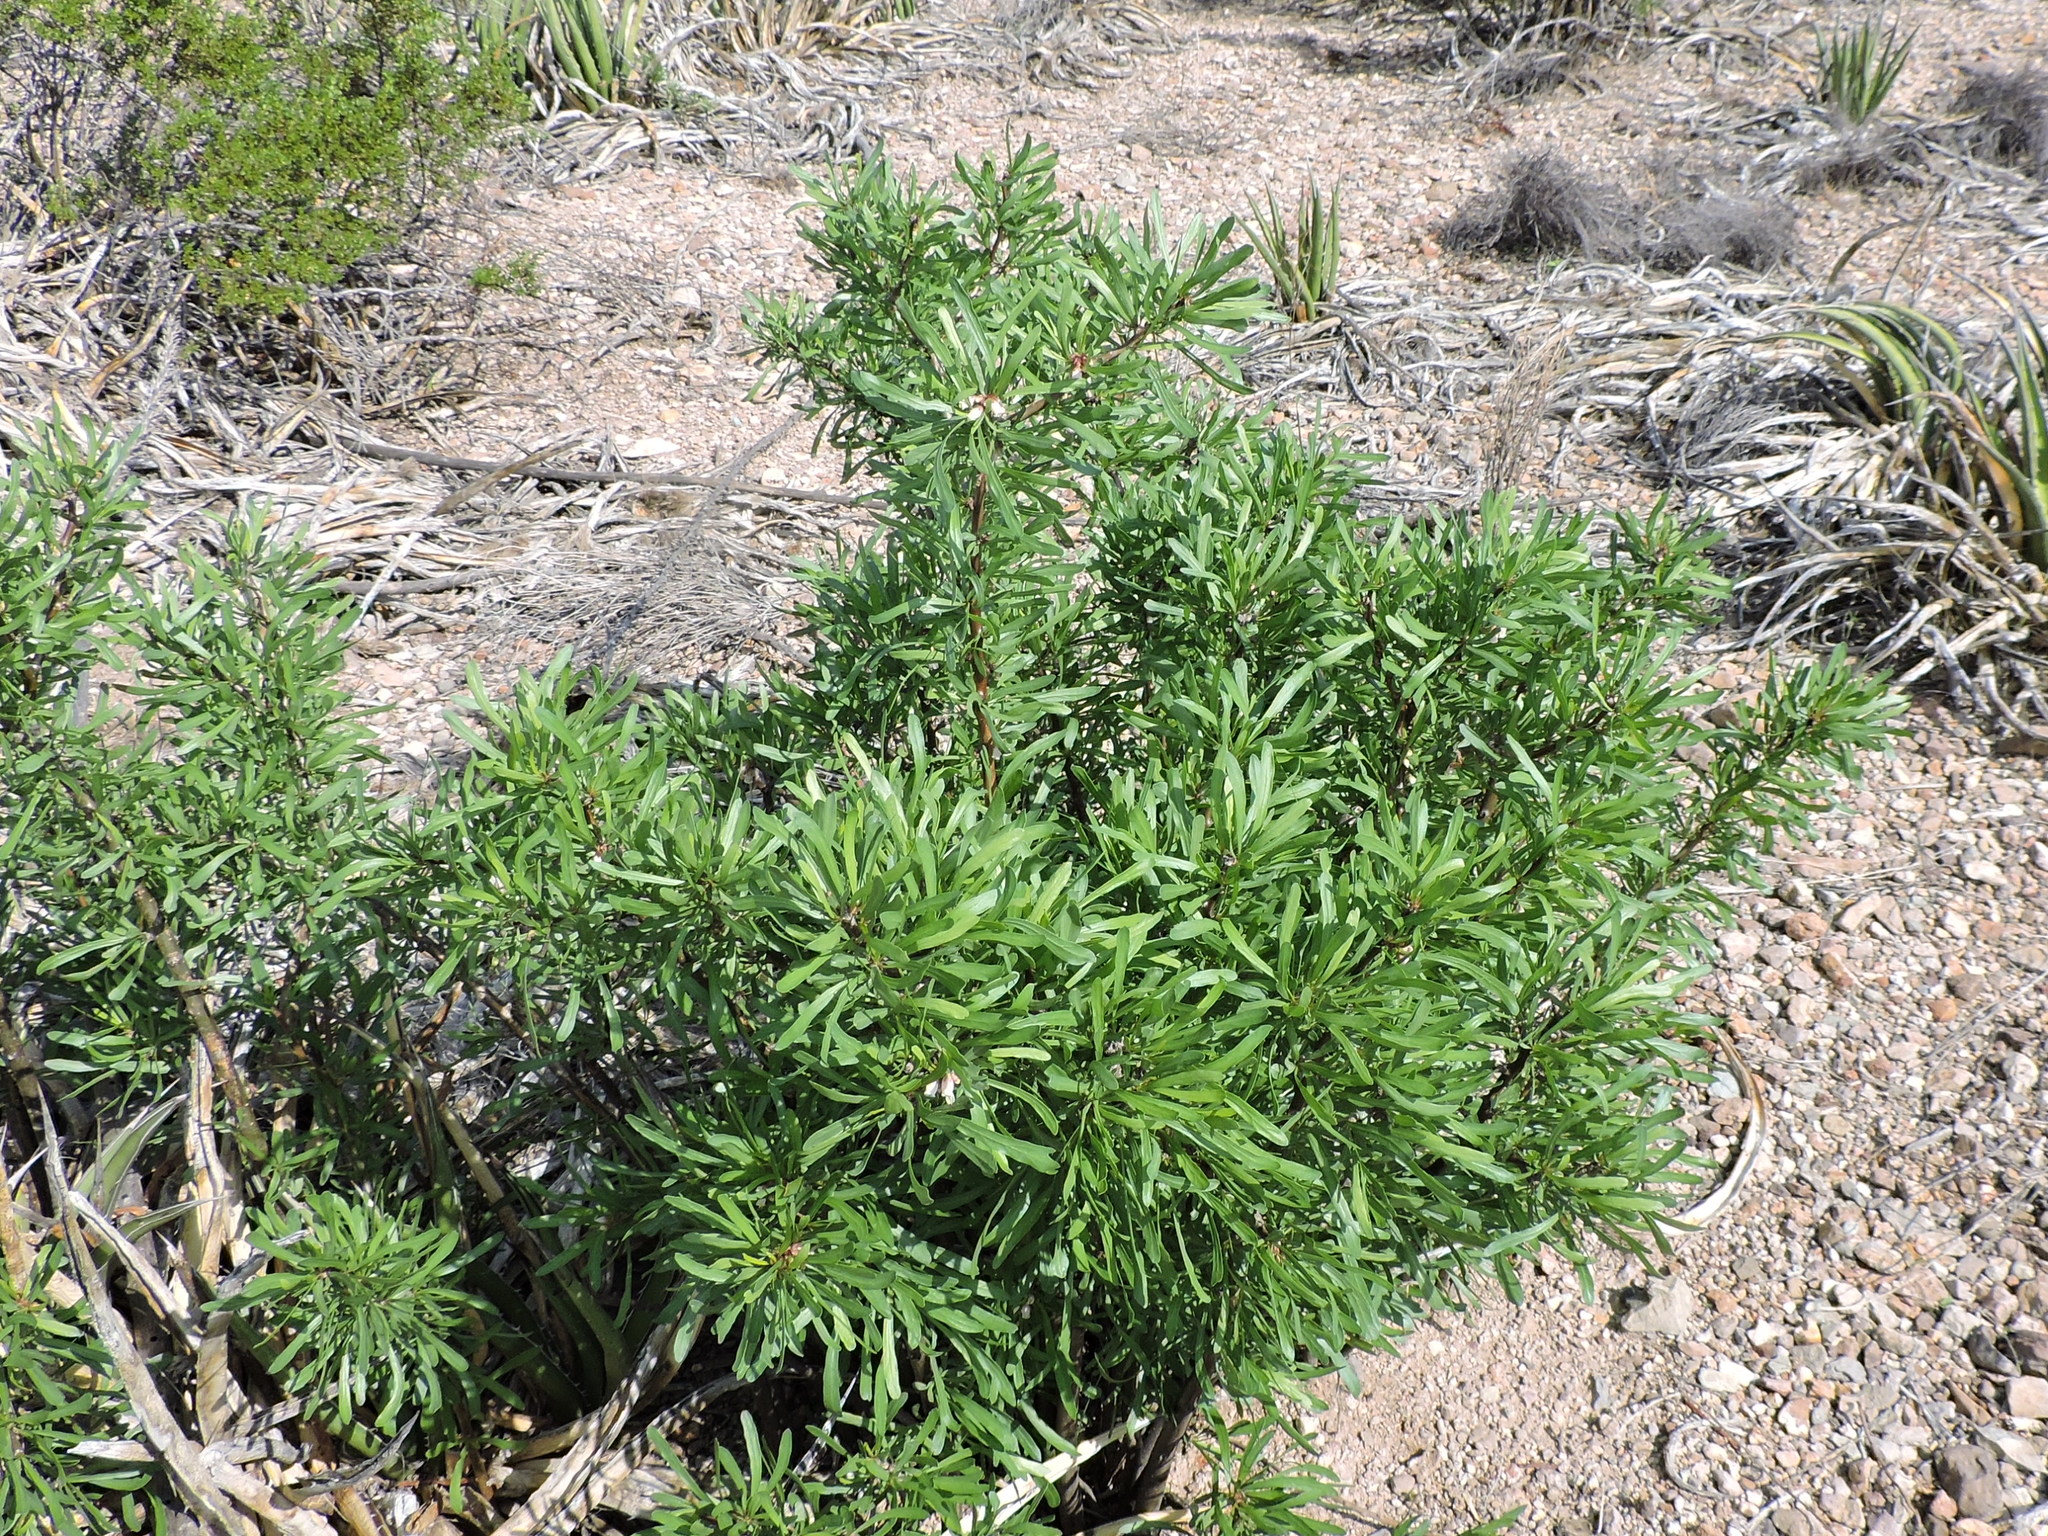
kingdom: Plantae
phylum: Tracheophyta
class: Magnoliopsida
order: Malpighiales
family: Euphorbiaceae
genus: Jatropha
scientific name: Jatropha dioica
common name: Leatherstem
